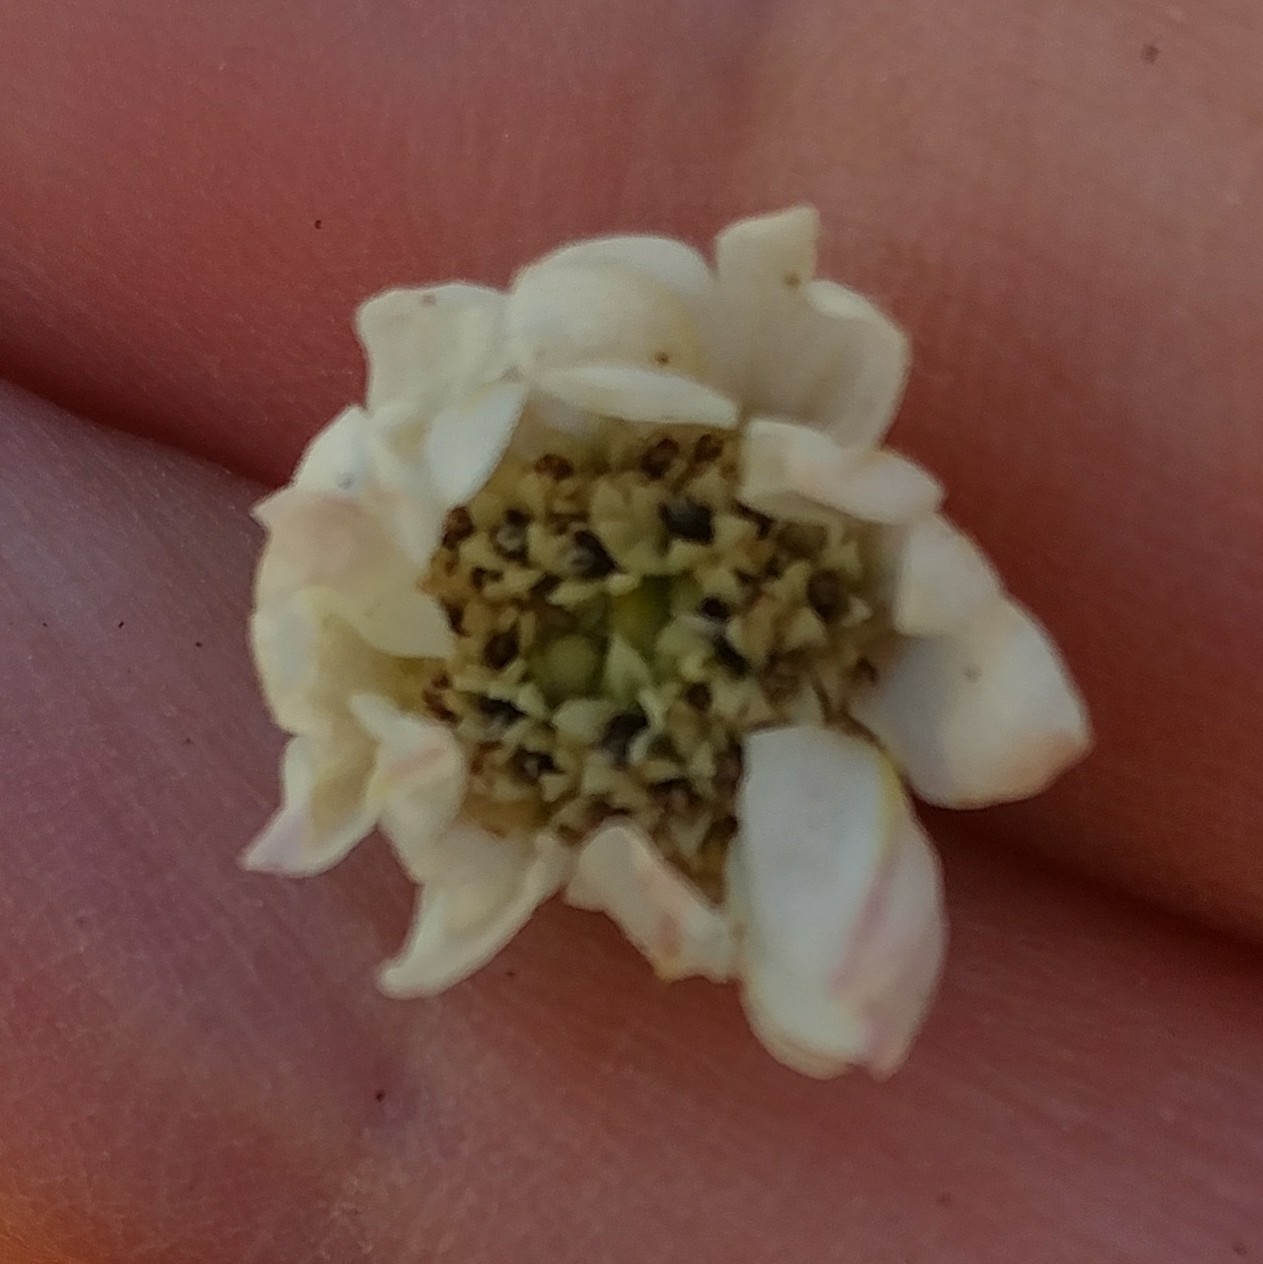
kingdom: Plantae
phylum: Tracheophyta
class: Magnoliopsida
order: Asterales
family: Asteraceae
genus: Hemizonia
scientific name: Hemizonia congesta
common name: Hayfield tarweed
